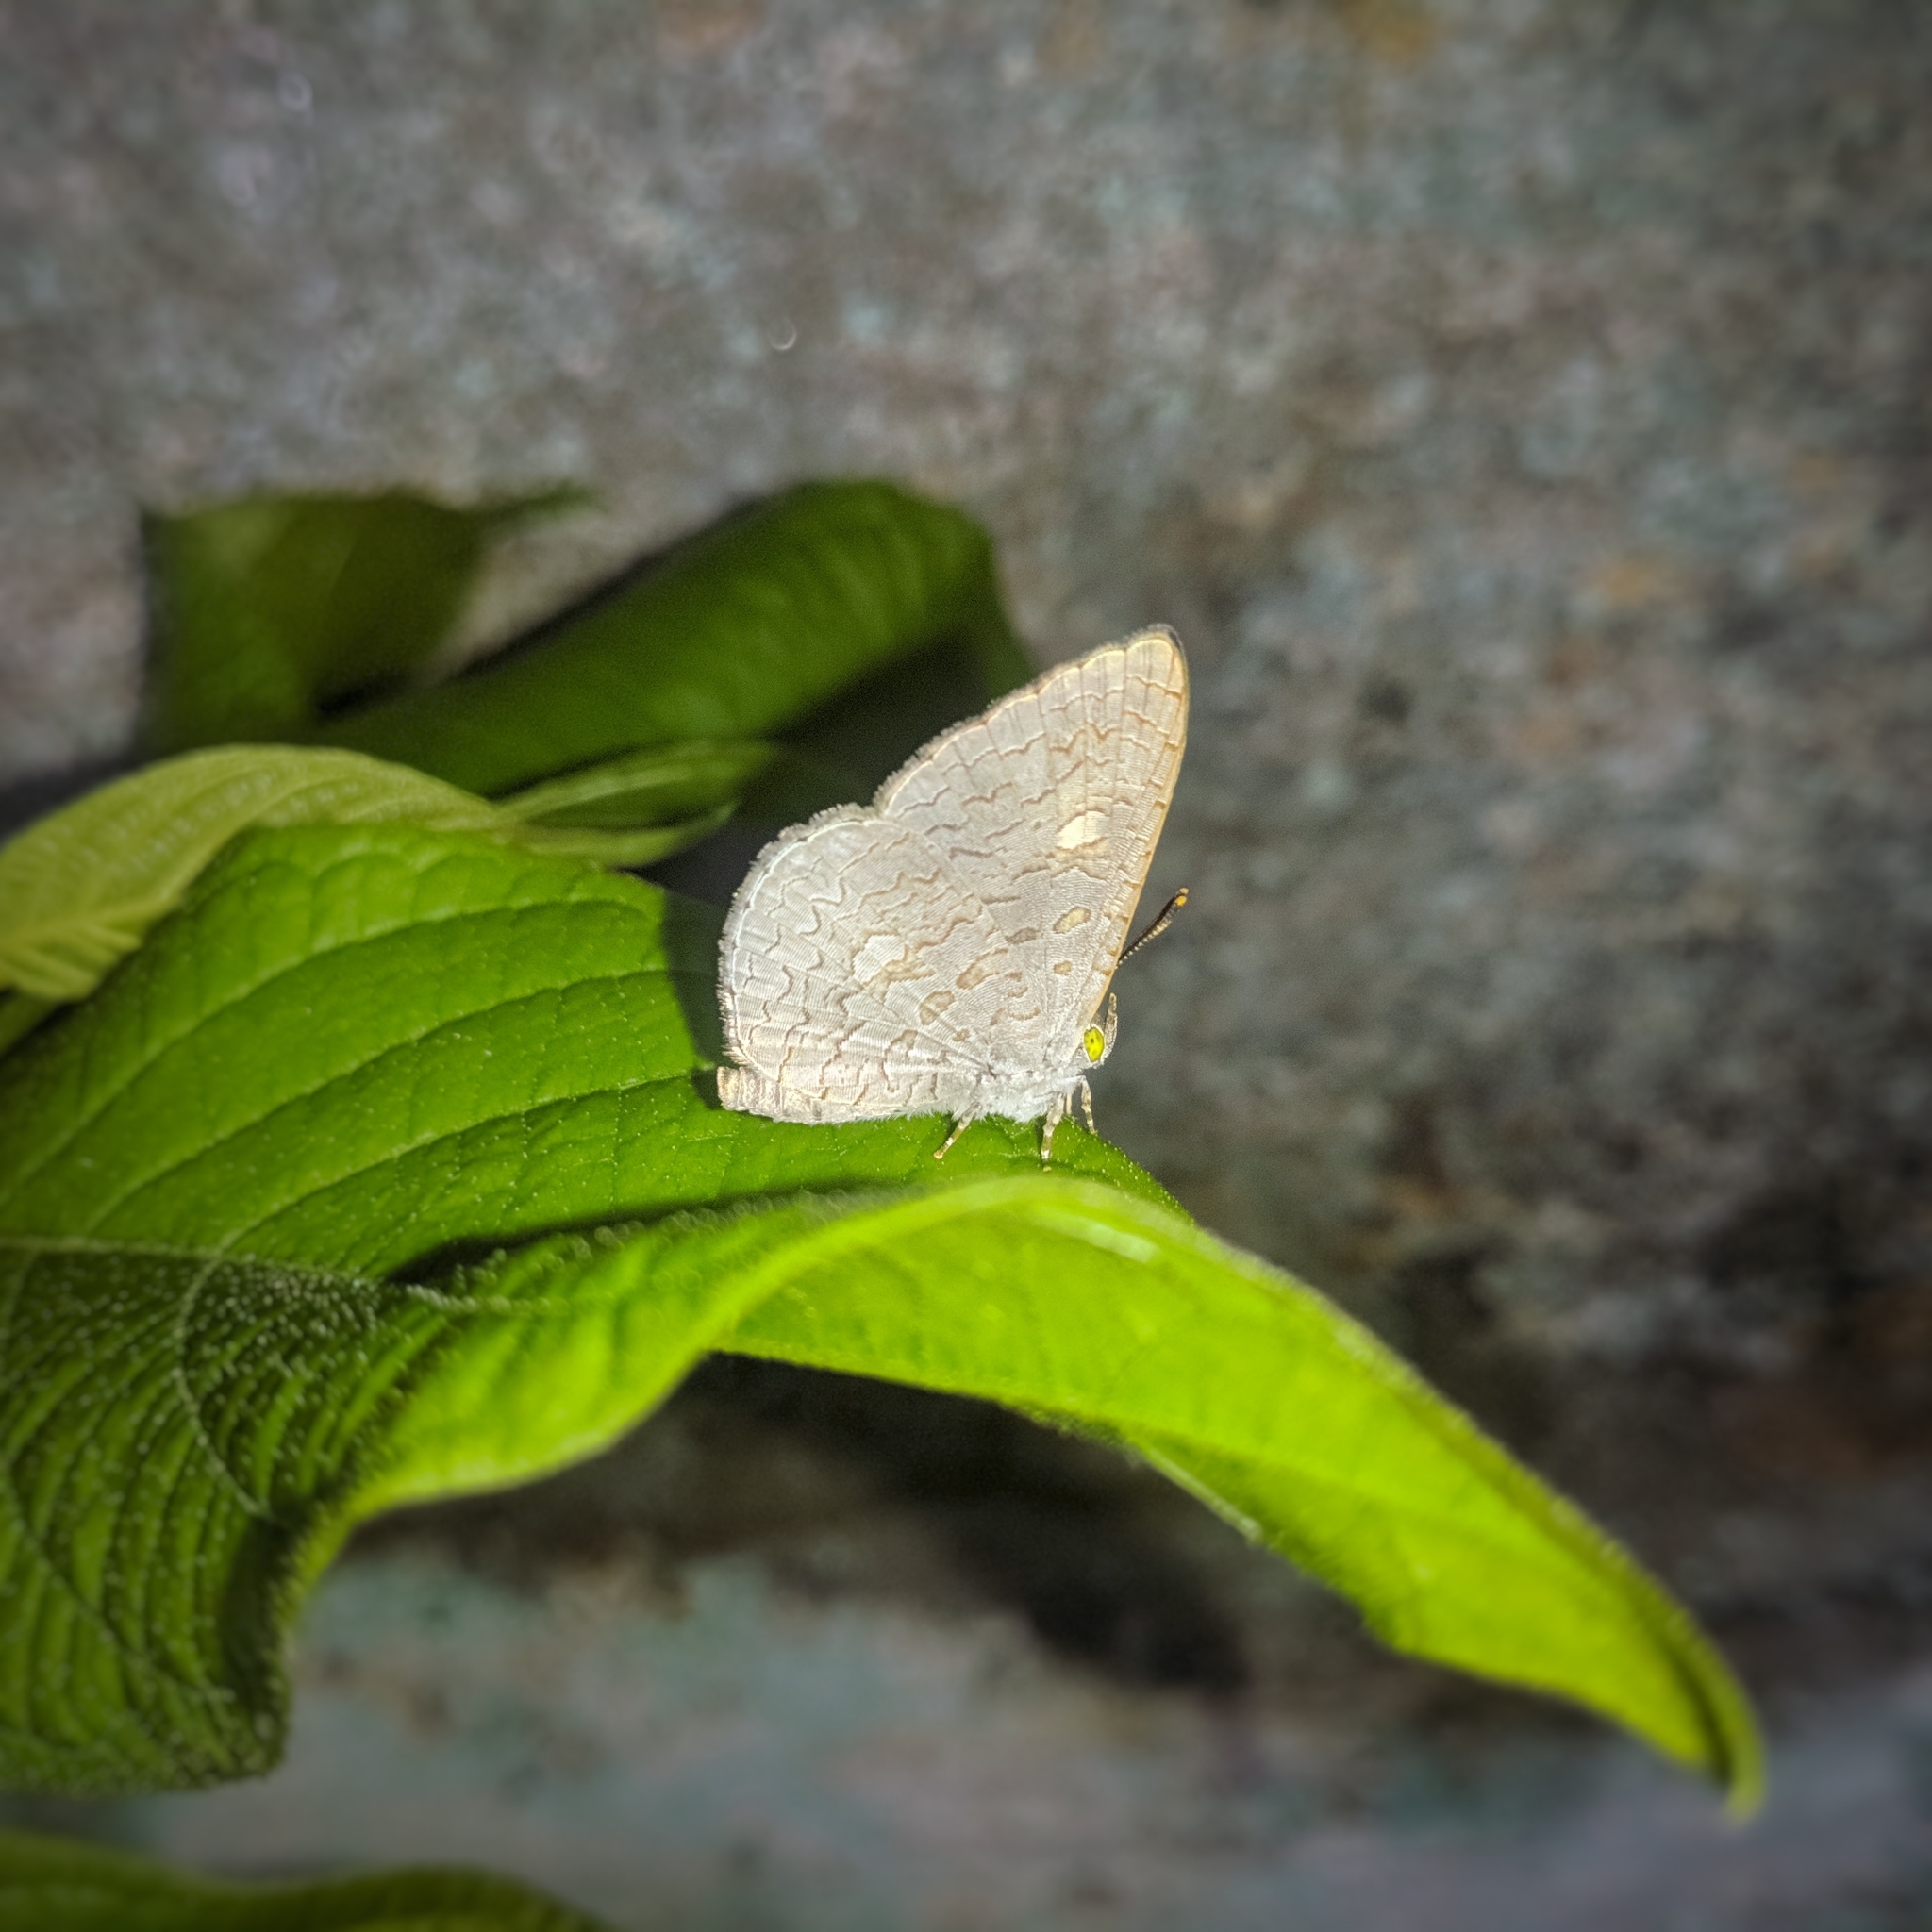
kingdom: Animalia
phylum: Arthropoda
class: Insecta
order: Lepidoptera
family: Lycaenidae
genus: Spalgis
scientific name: Spalgis epius
